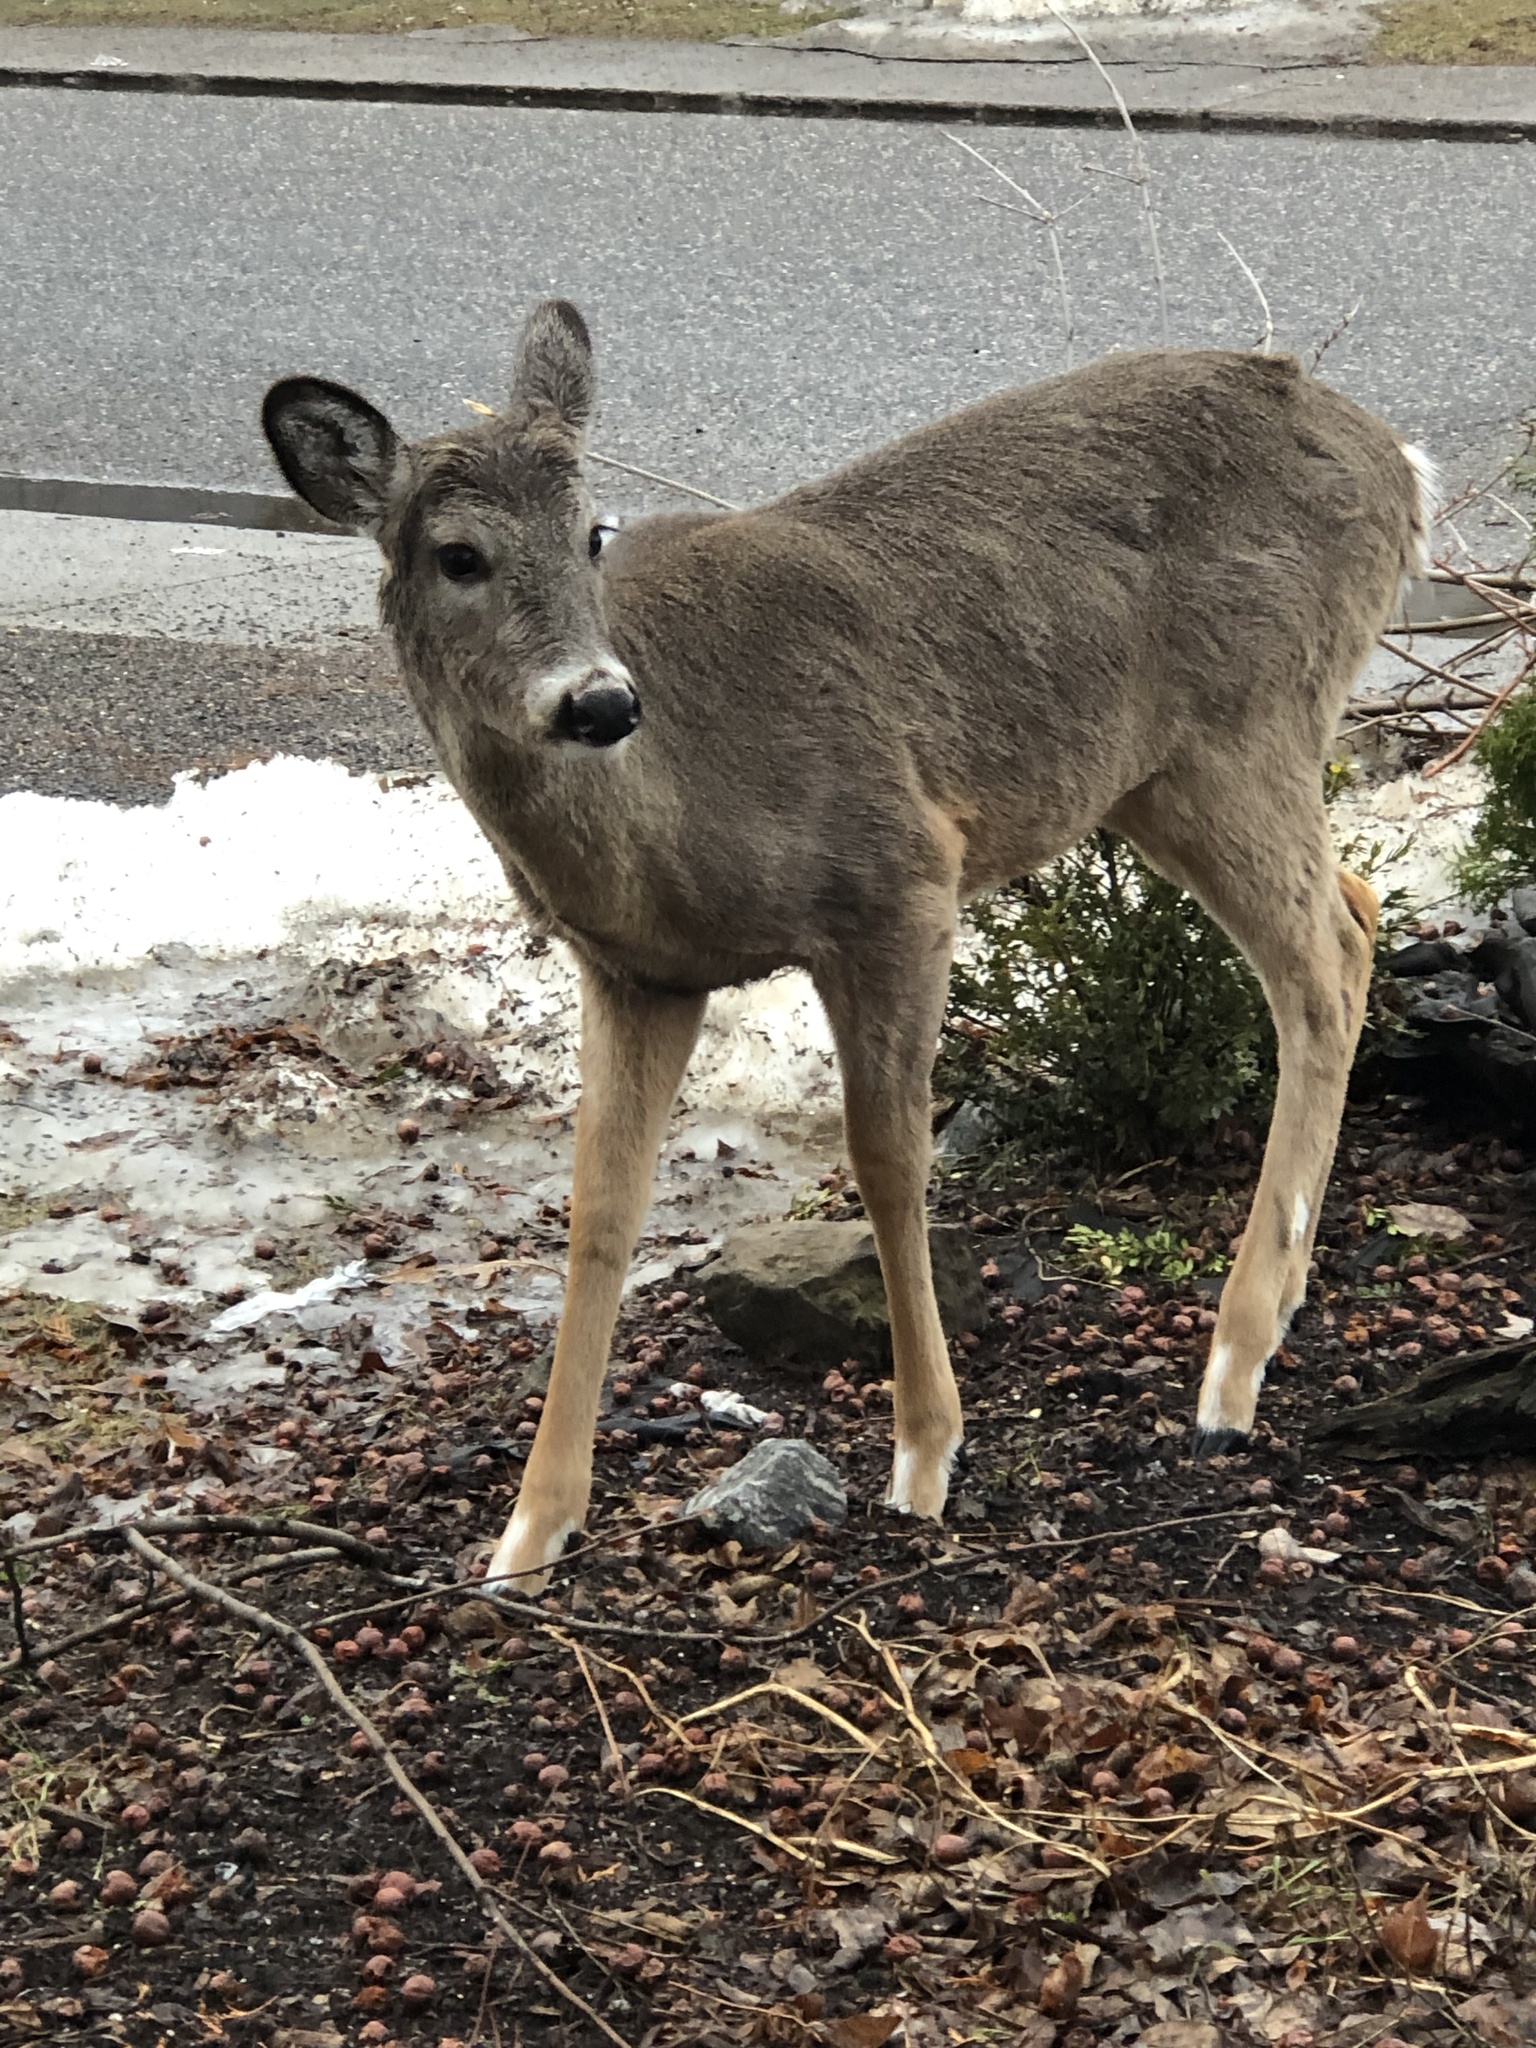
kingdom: Animalia
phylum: Chordata
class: Mammalia
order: Artiodactyla
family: Cervidae
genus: Odocoileus
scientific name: Odocoileus virginianus
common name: White-tailed deer
